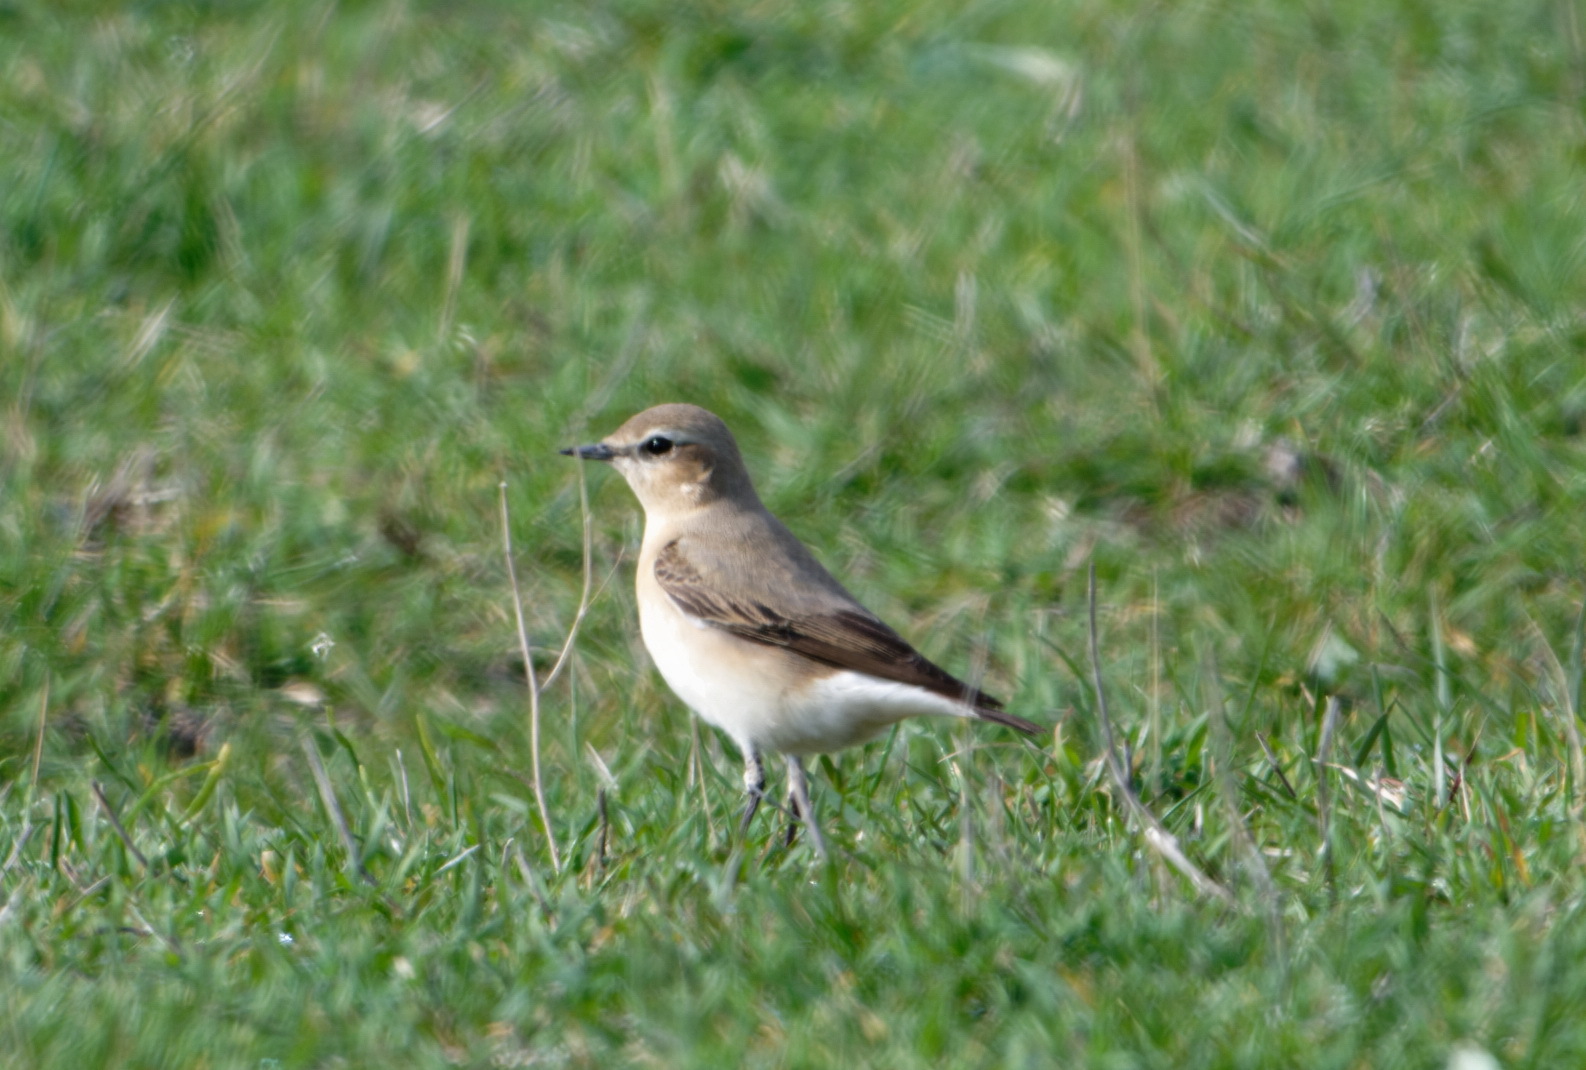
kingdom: Animalia
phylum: Chordata
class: Aves
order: Passeriformes
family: Muscicapidae
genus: Oenanthe
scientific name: Oenanthe isabellina
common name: Isabelline wheatear
